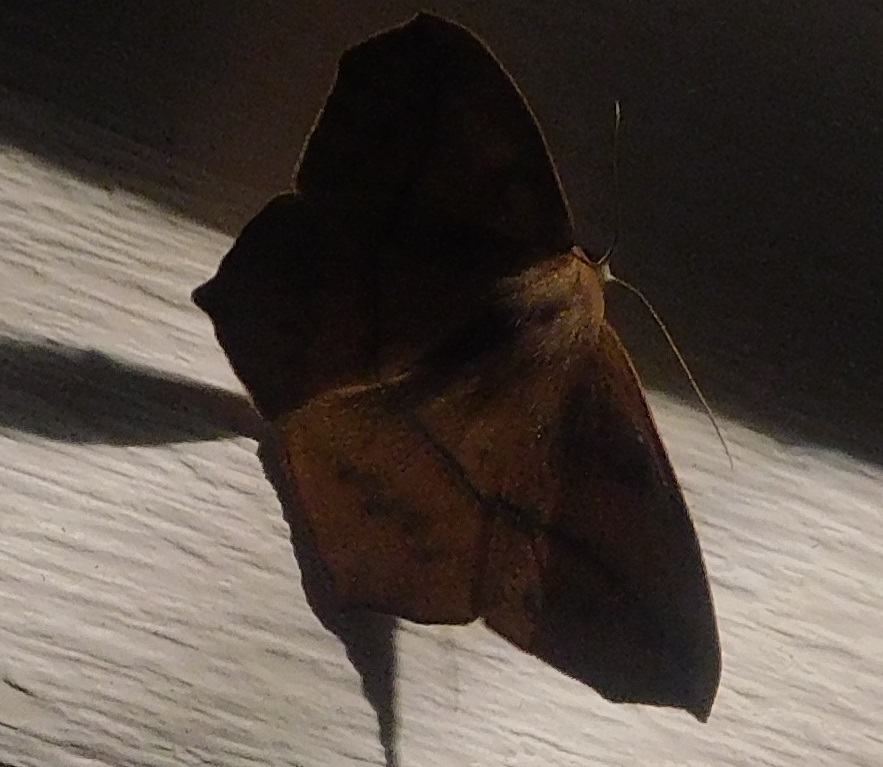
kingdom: Animalia
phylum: Arthropoda
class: Insecta
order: Lepidoptera
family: Geometridae
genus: Prochoerodes
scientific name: Prochoerodes lineola
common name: Large maple spanworm
